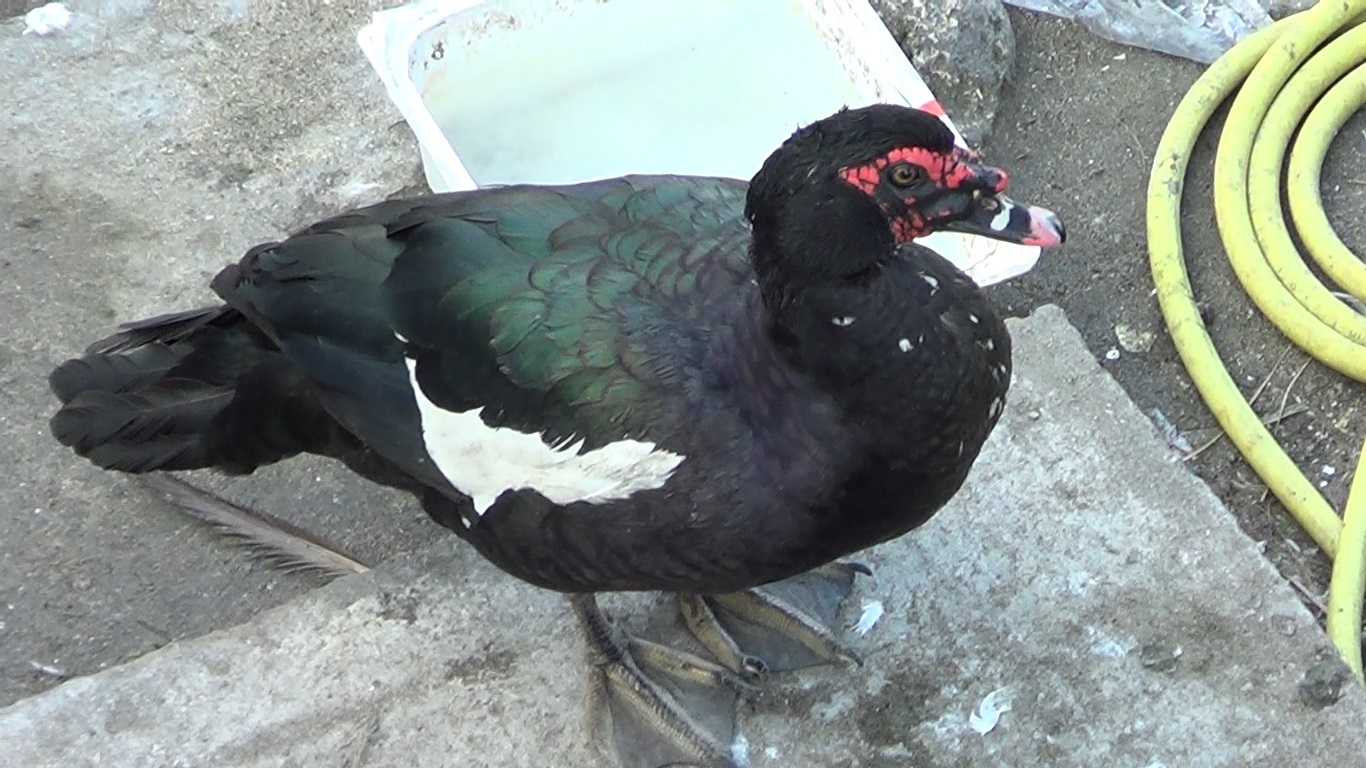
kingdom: Animalia
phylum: Chordata
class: Aves
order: Anseriformes
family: Anatidae
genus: Cairina
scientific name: Cairina moschata
